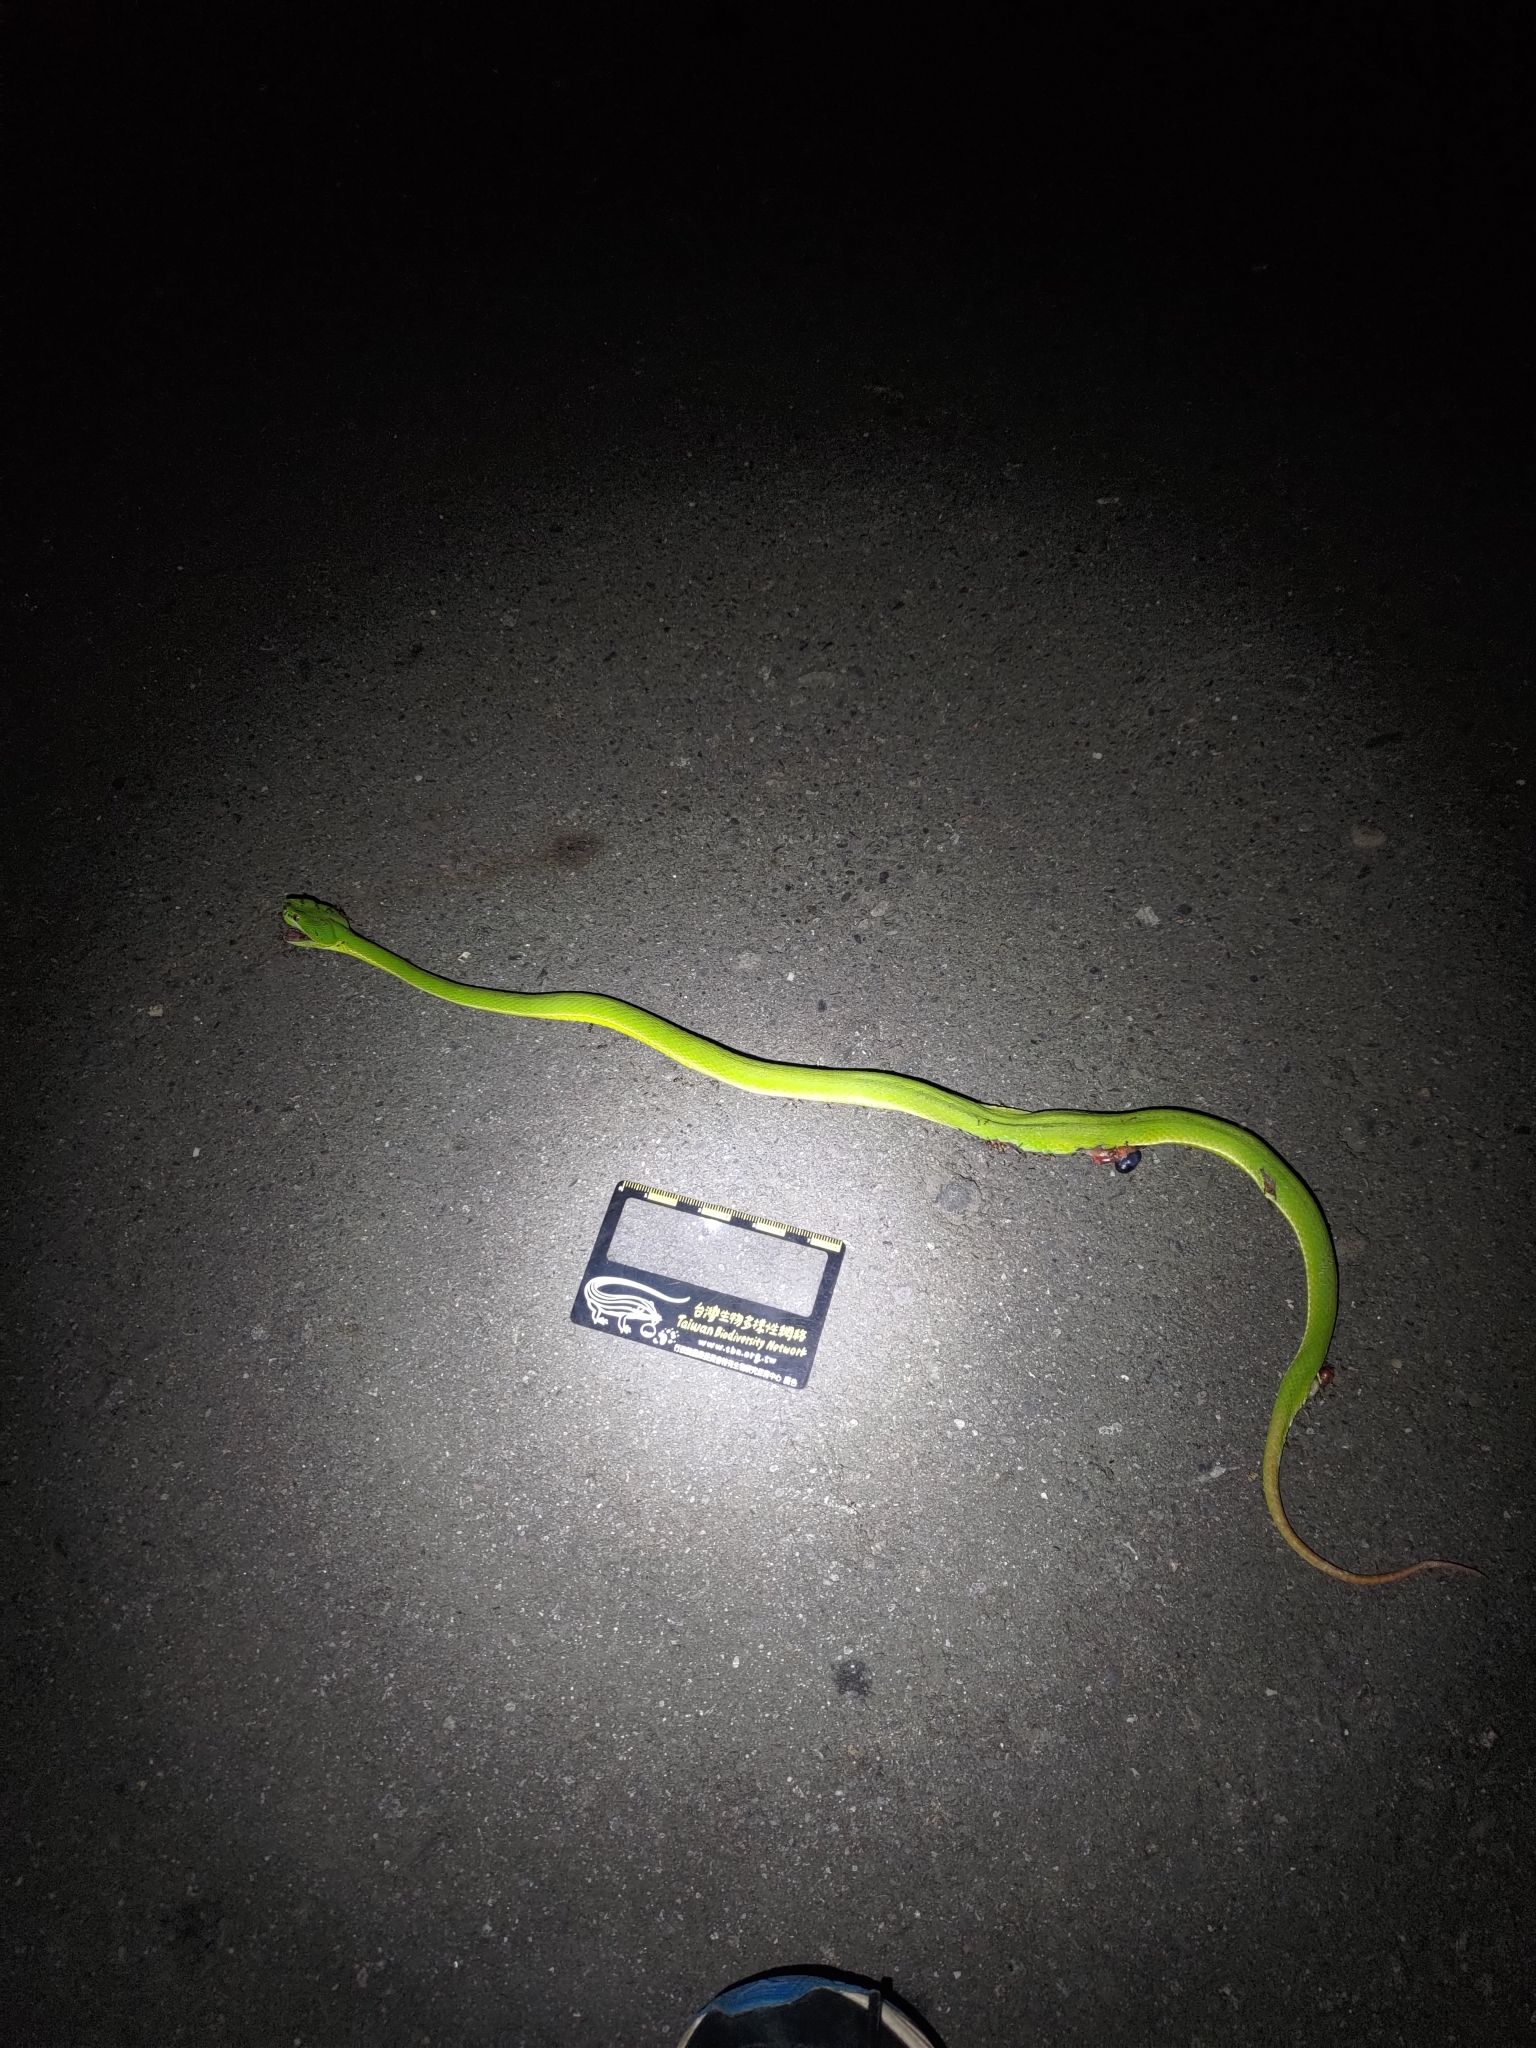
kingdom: Animalia
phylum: Chordata
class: Squamata
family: Viperidae
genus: Trimeresurus
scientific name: Trimeresurus stejnegeri
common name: Chen’s bamboo pit viper
